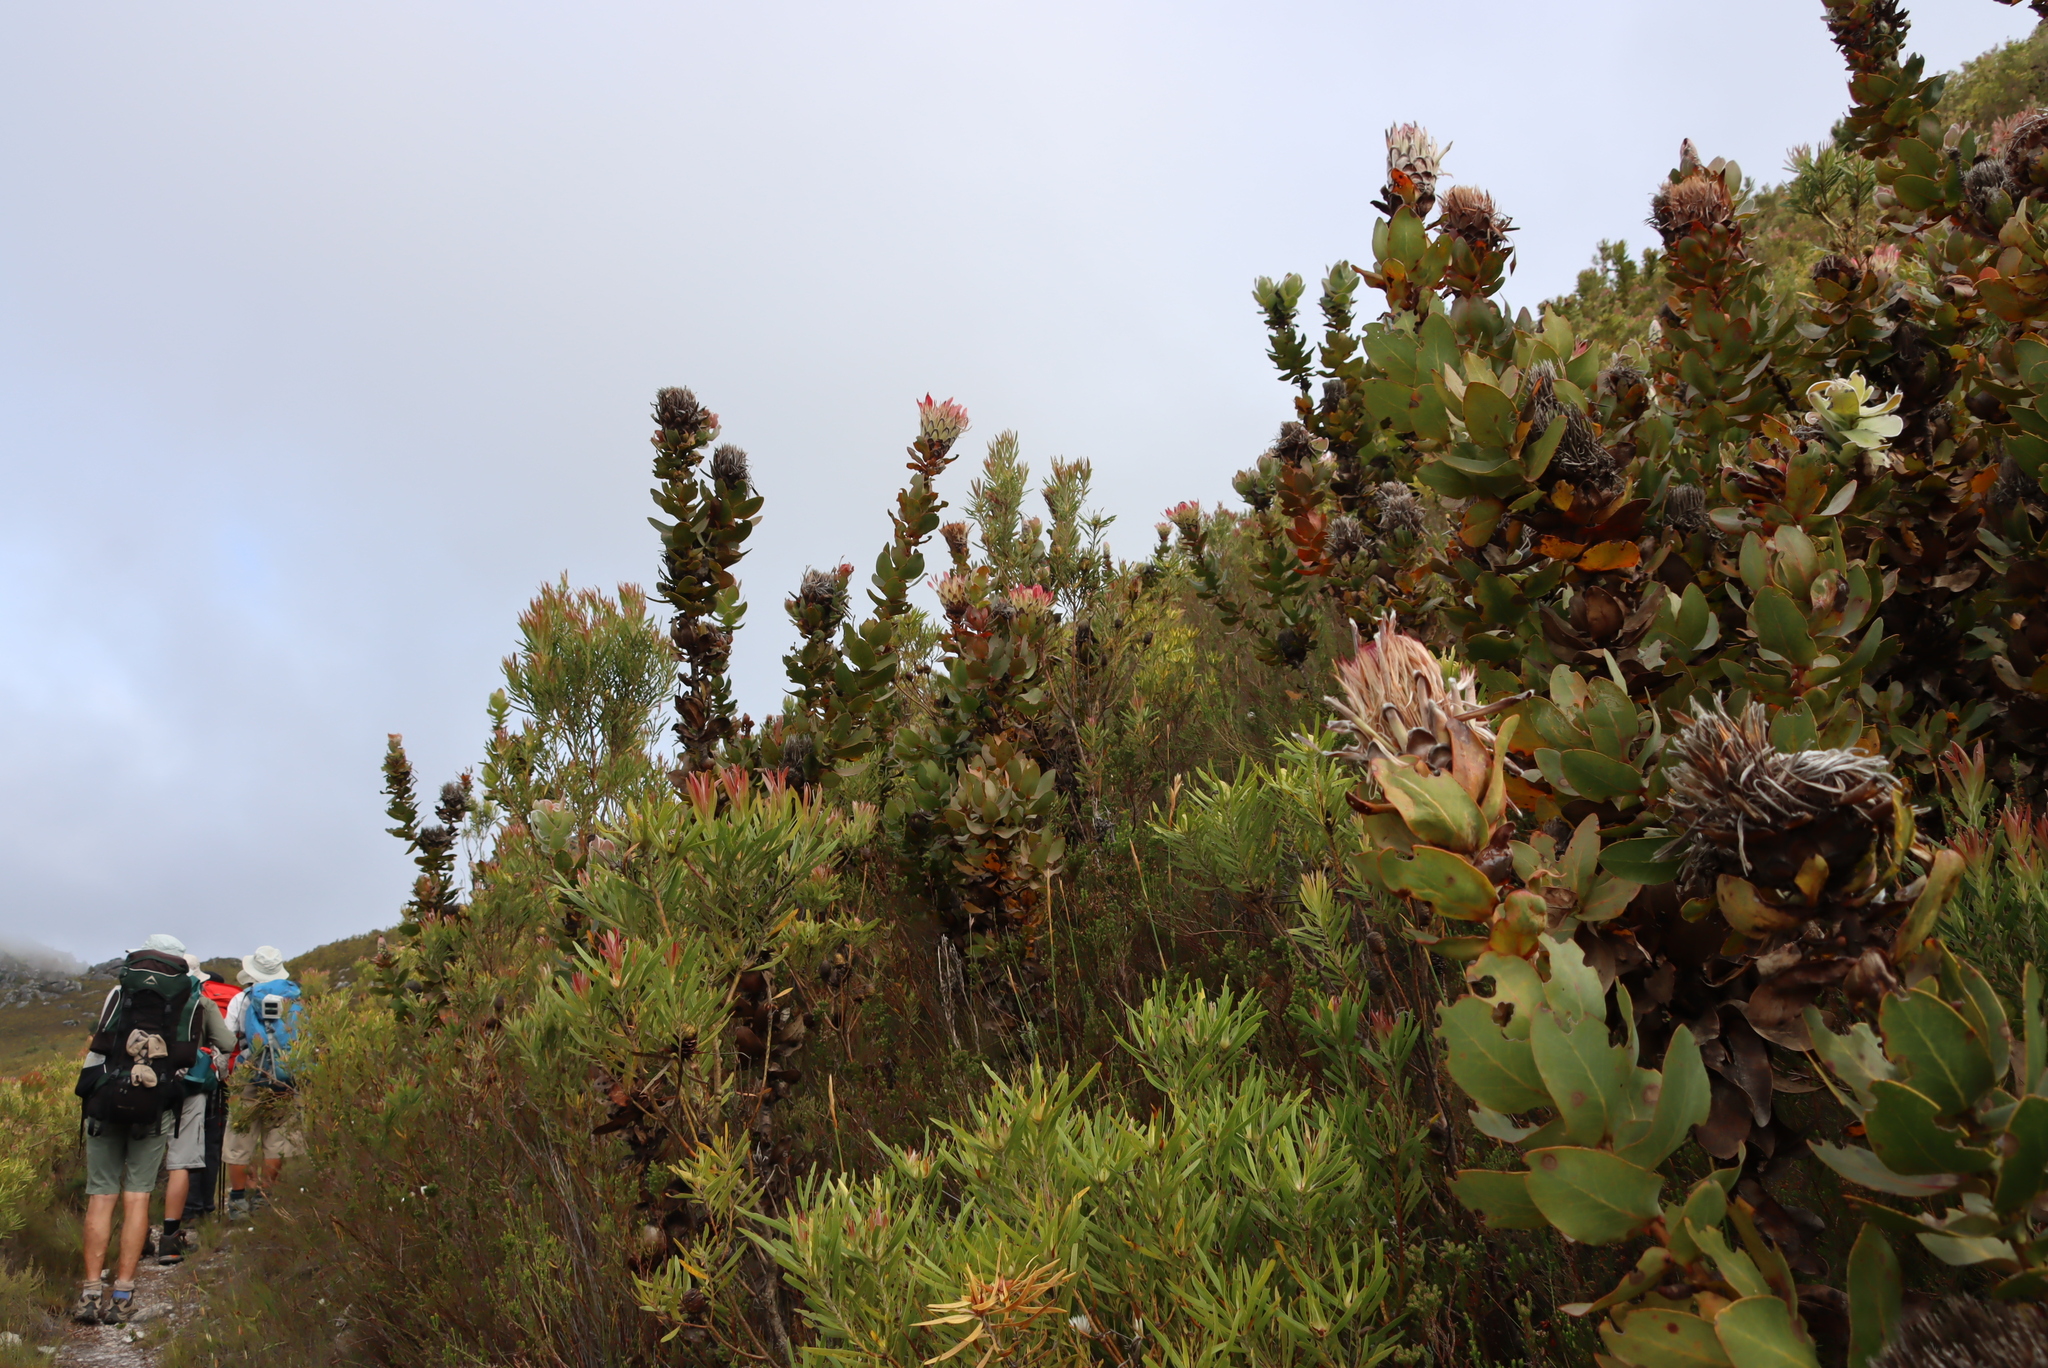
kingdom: Plantae
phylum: Tracheophyta
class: Magnoliopsida
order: Proteales
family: Proteaceae
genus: Protea
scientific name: Protea eximia
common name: Broad-leaved sugarbush
